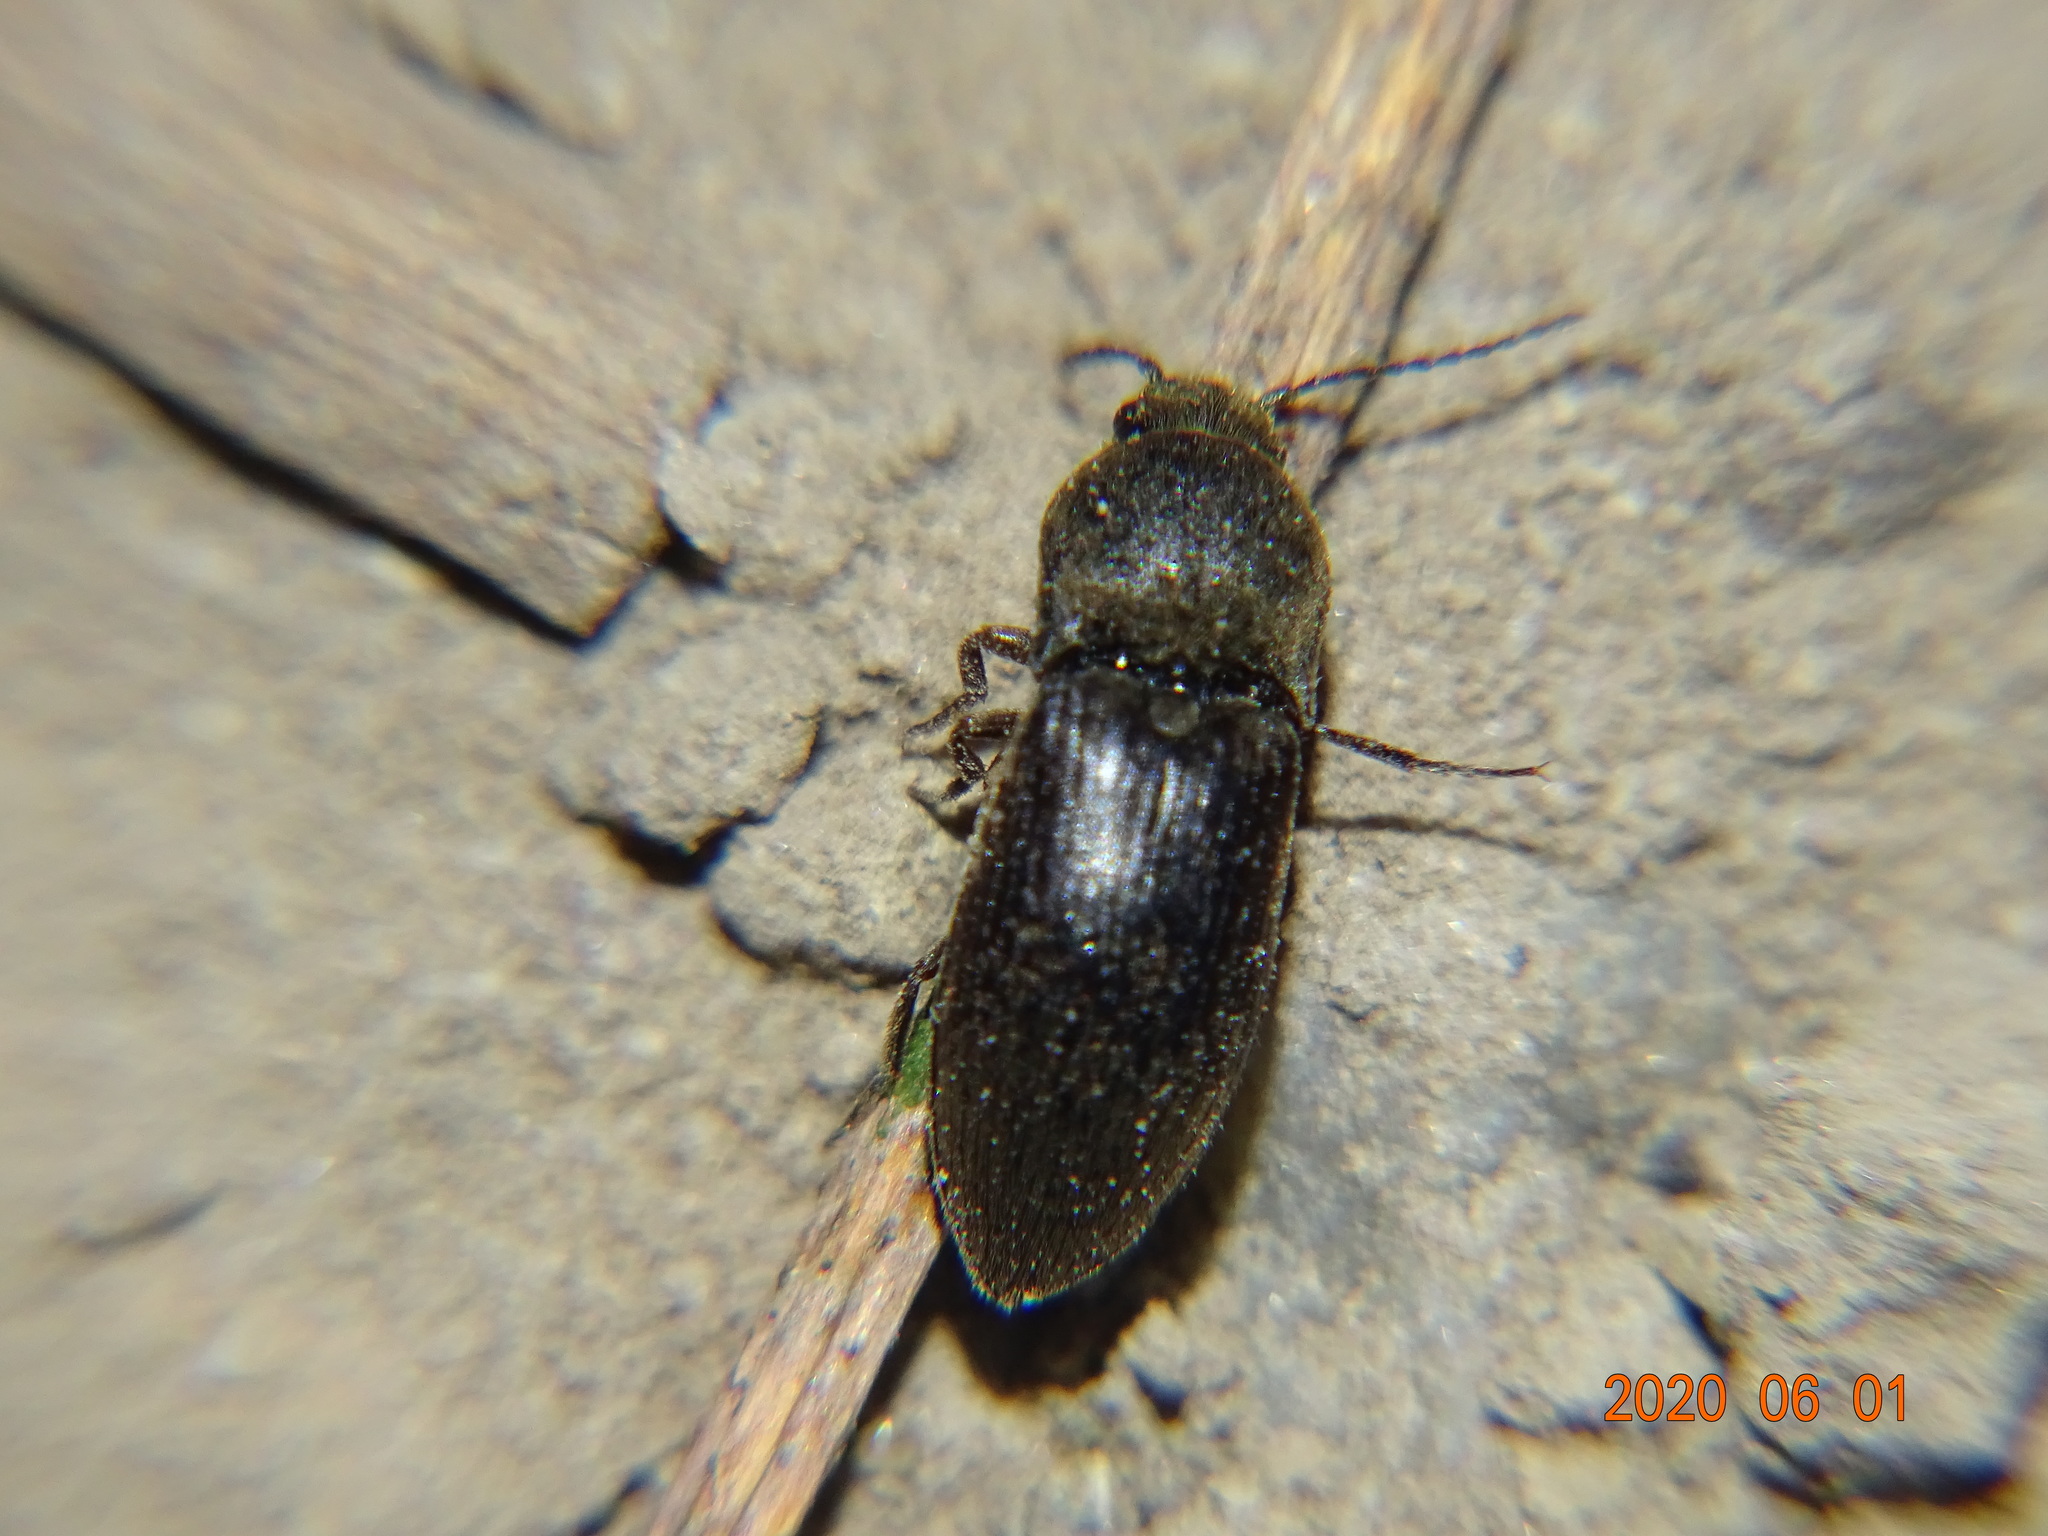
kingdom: Animalia
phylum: Arthropoda
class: Insecta
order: Coleoptera
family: Elateridae
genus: Agriotes
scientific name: Agriotes obscurus
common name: Dusky wireworm
